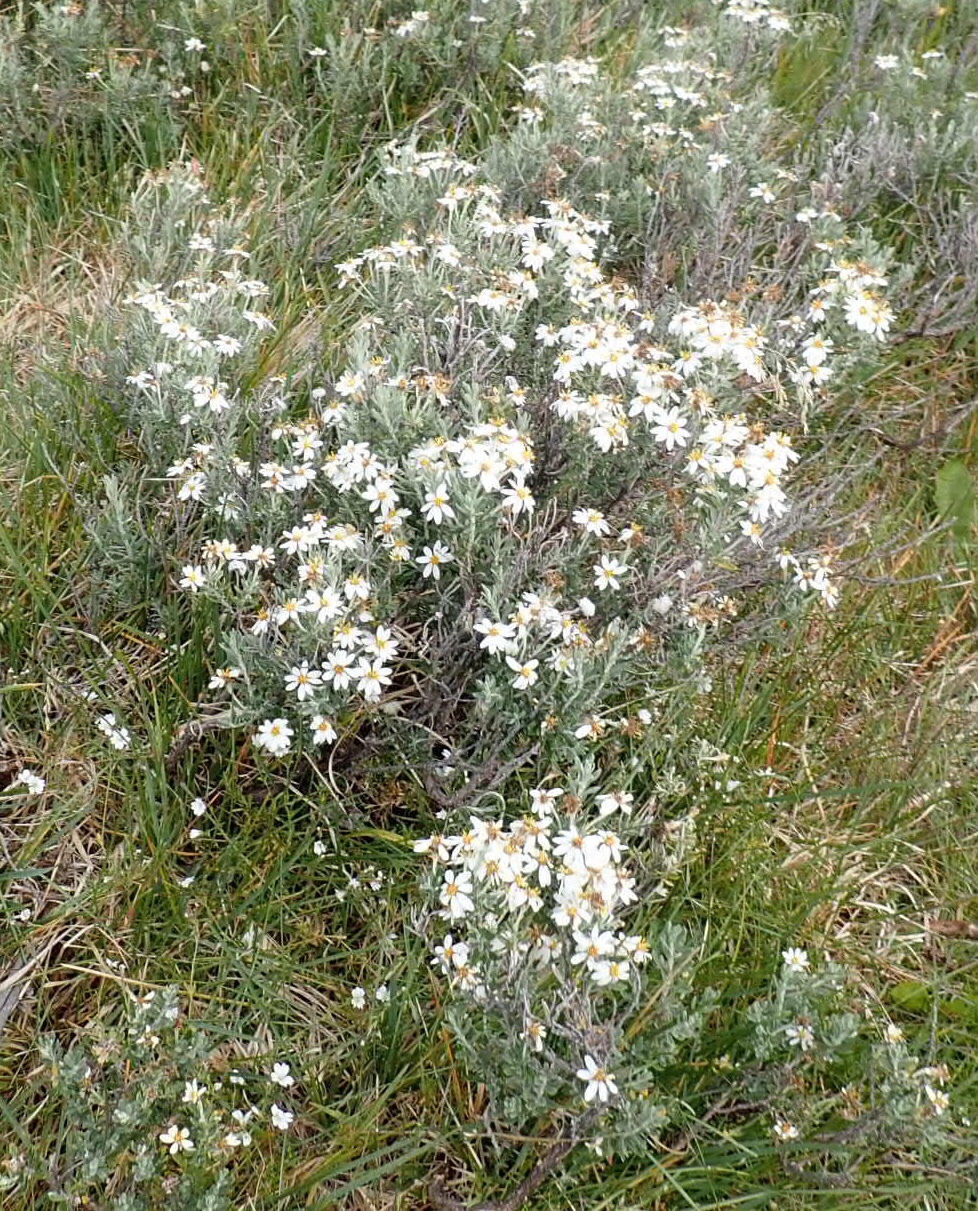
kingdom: Plantae
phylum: Tracheophyta
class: Magnoliopsida
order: Asterales
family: Asteraceae
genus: Chiliotrichum
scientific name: Chiliotrichum diffusum
